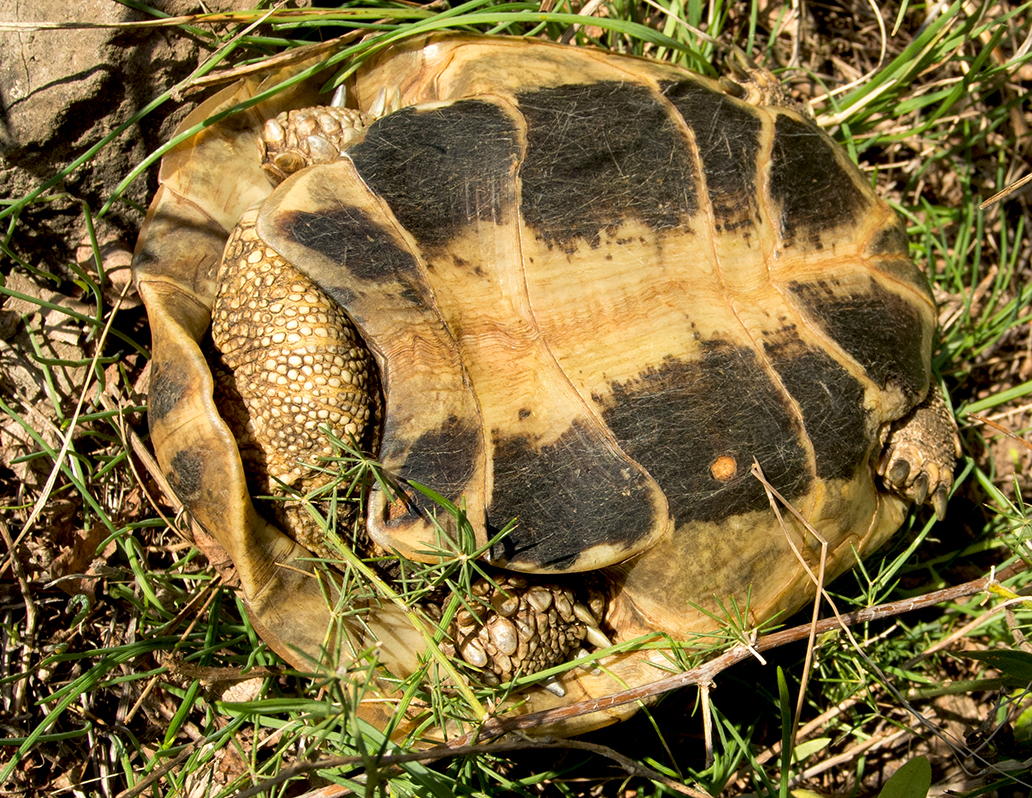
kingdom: Animalia
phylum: Chordata
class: Testudines
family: Testudinidae
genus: Testudo
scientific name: Testudo hermanni
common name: Hermann's tortoise
